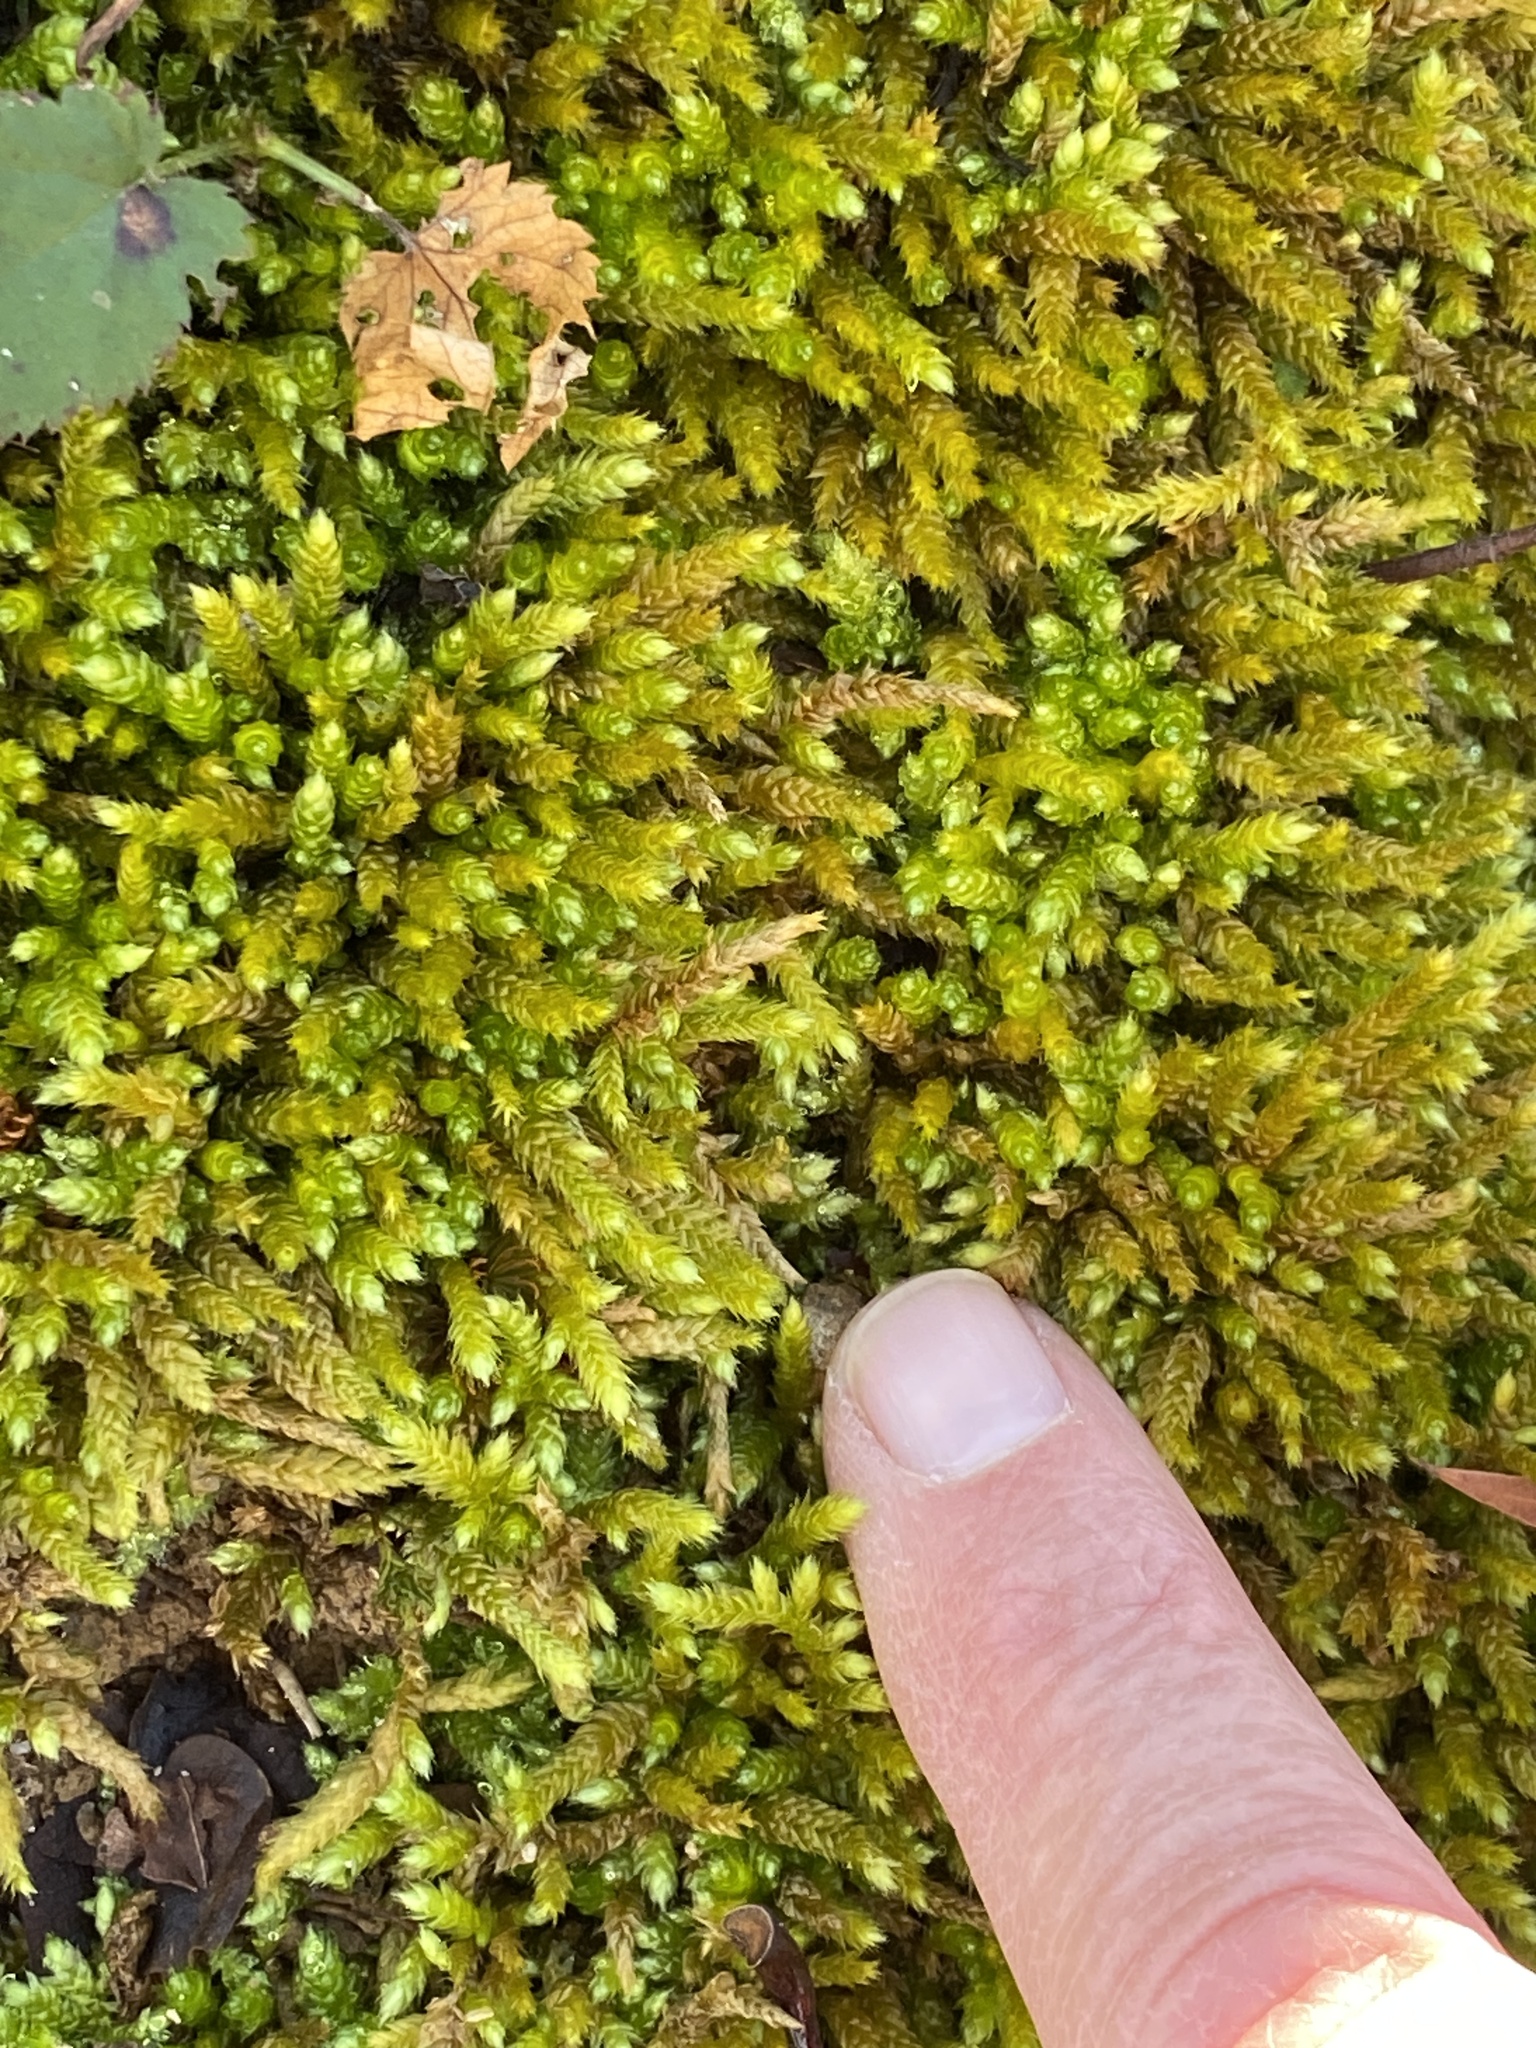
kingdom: Plantae
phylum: Bryophyta
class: Bryopsida
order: Hypnales
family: Brachytheciaceae
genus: Bryoandersonia
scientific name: Bryoandersonia illecebra
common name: Spoon-leaved moss
